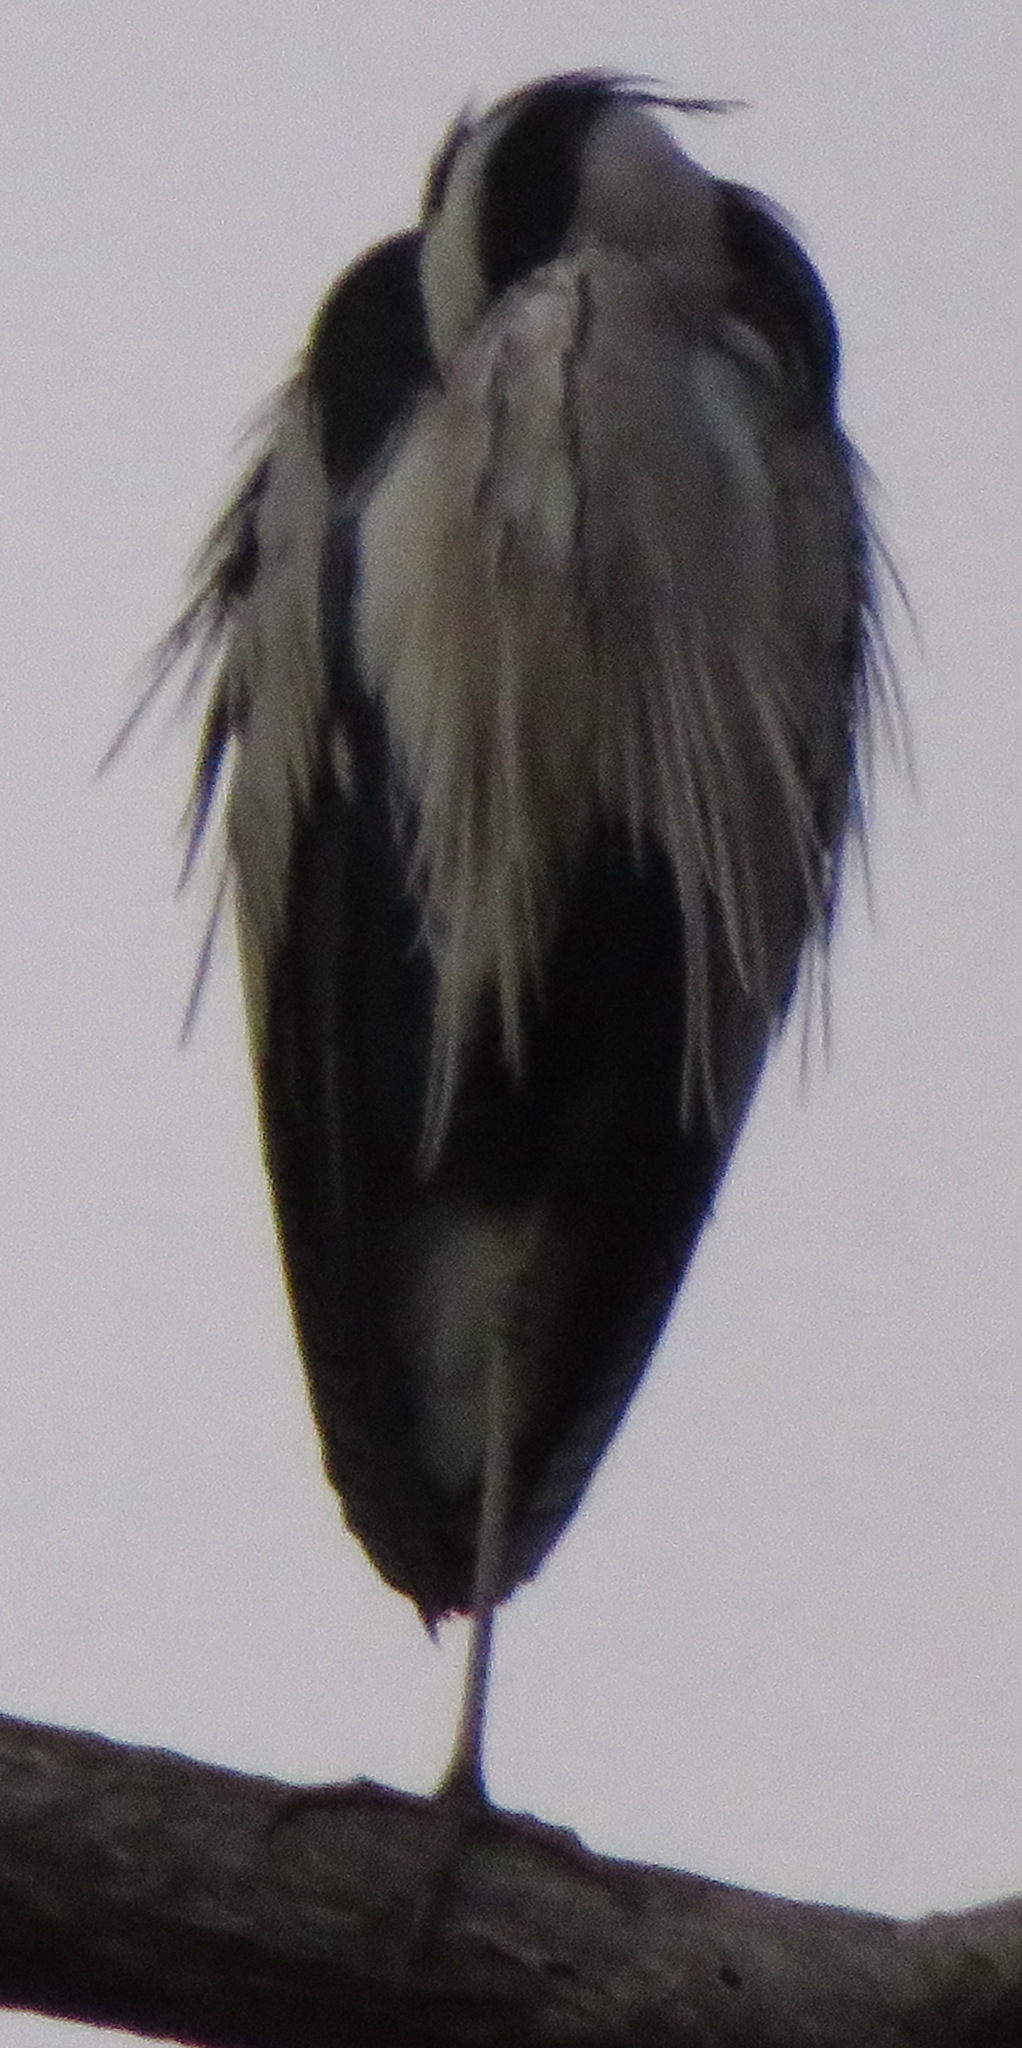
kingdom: Animalia
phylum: Chordata
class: Aves
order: Pelecaniformes
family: Ardeidae
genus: Ardea
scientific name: Ardea cinerea
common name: Grey heron
